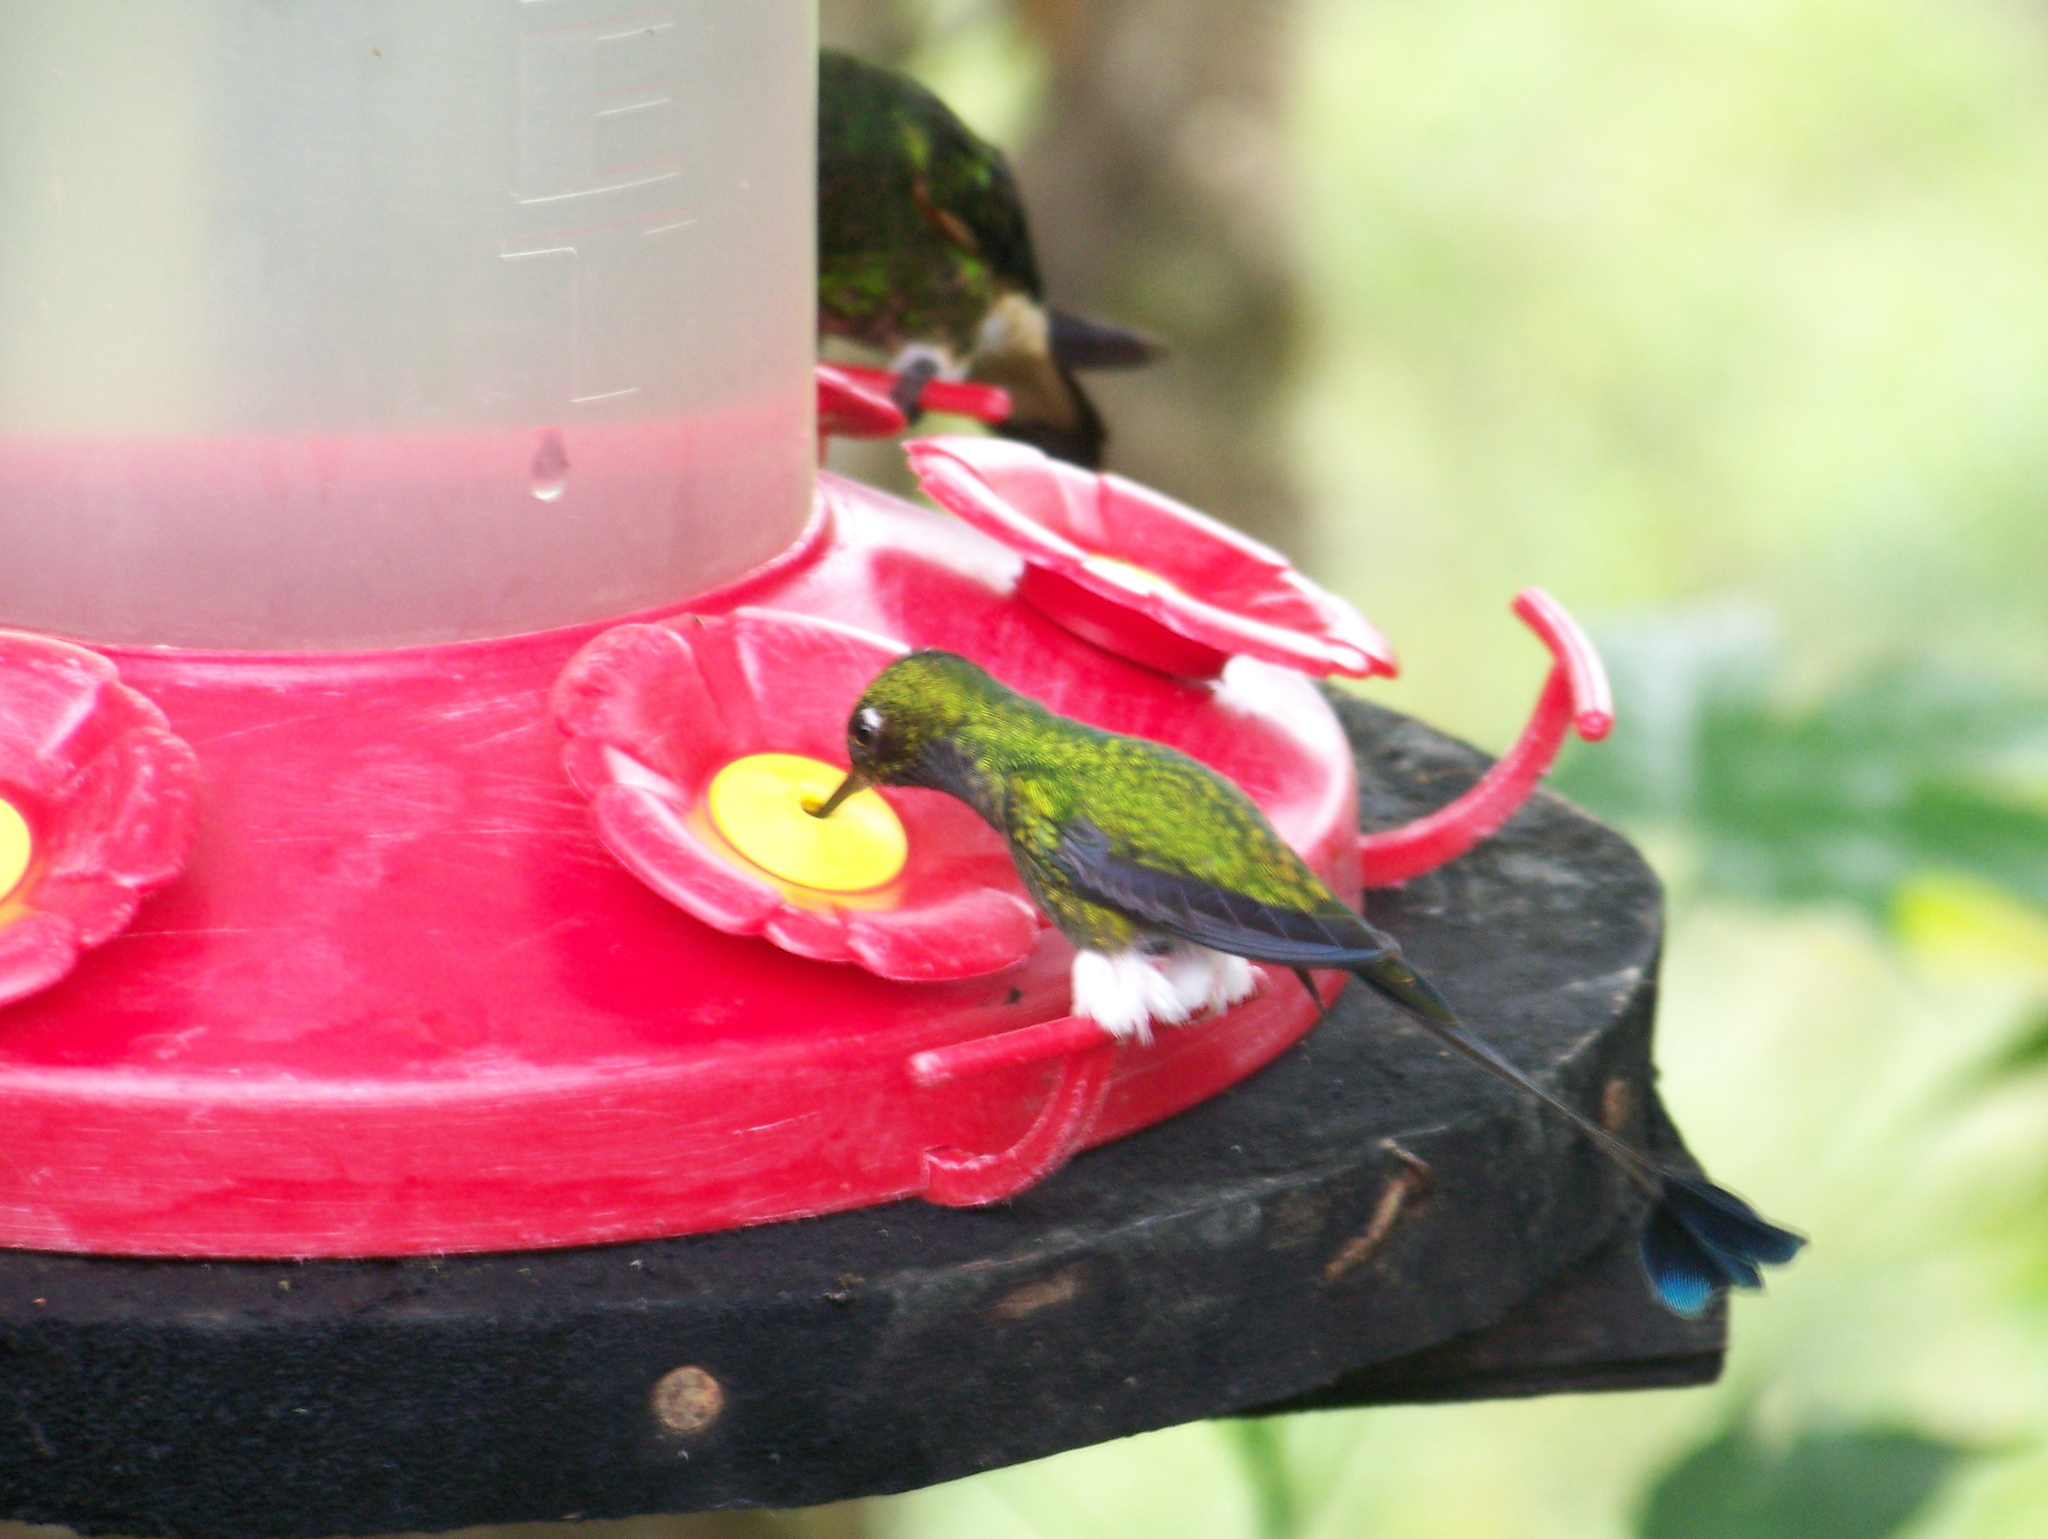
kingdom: Animalia
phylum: Chordata
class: Aves
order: Apodiformes
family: Trochilidae
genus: Ocreatus
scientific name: Ocreatus underwoodii
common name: Booted racket-tail
